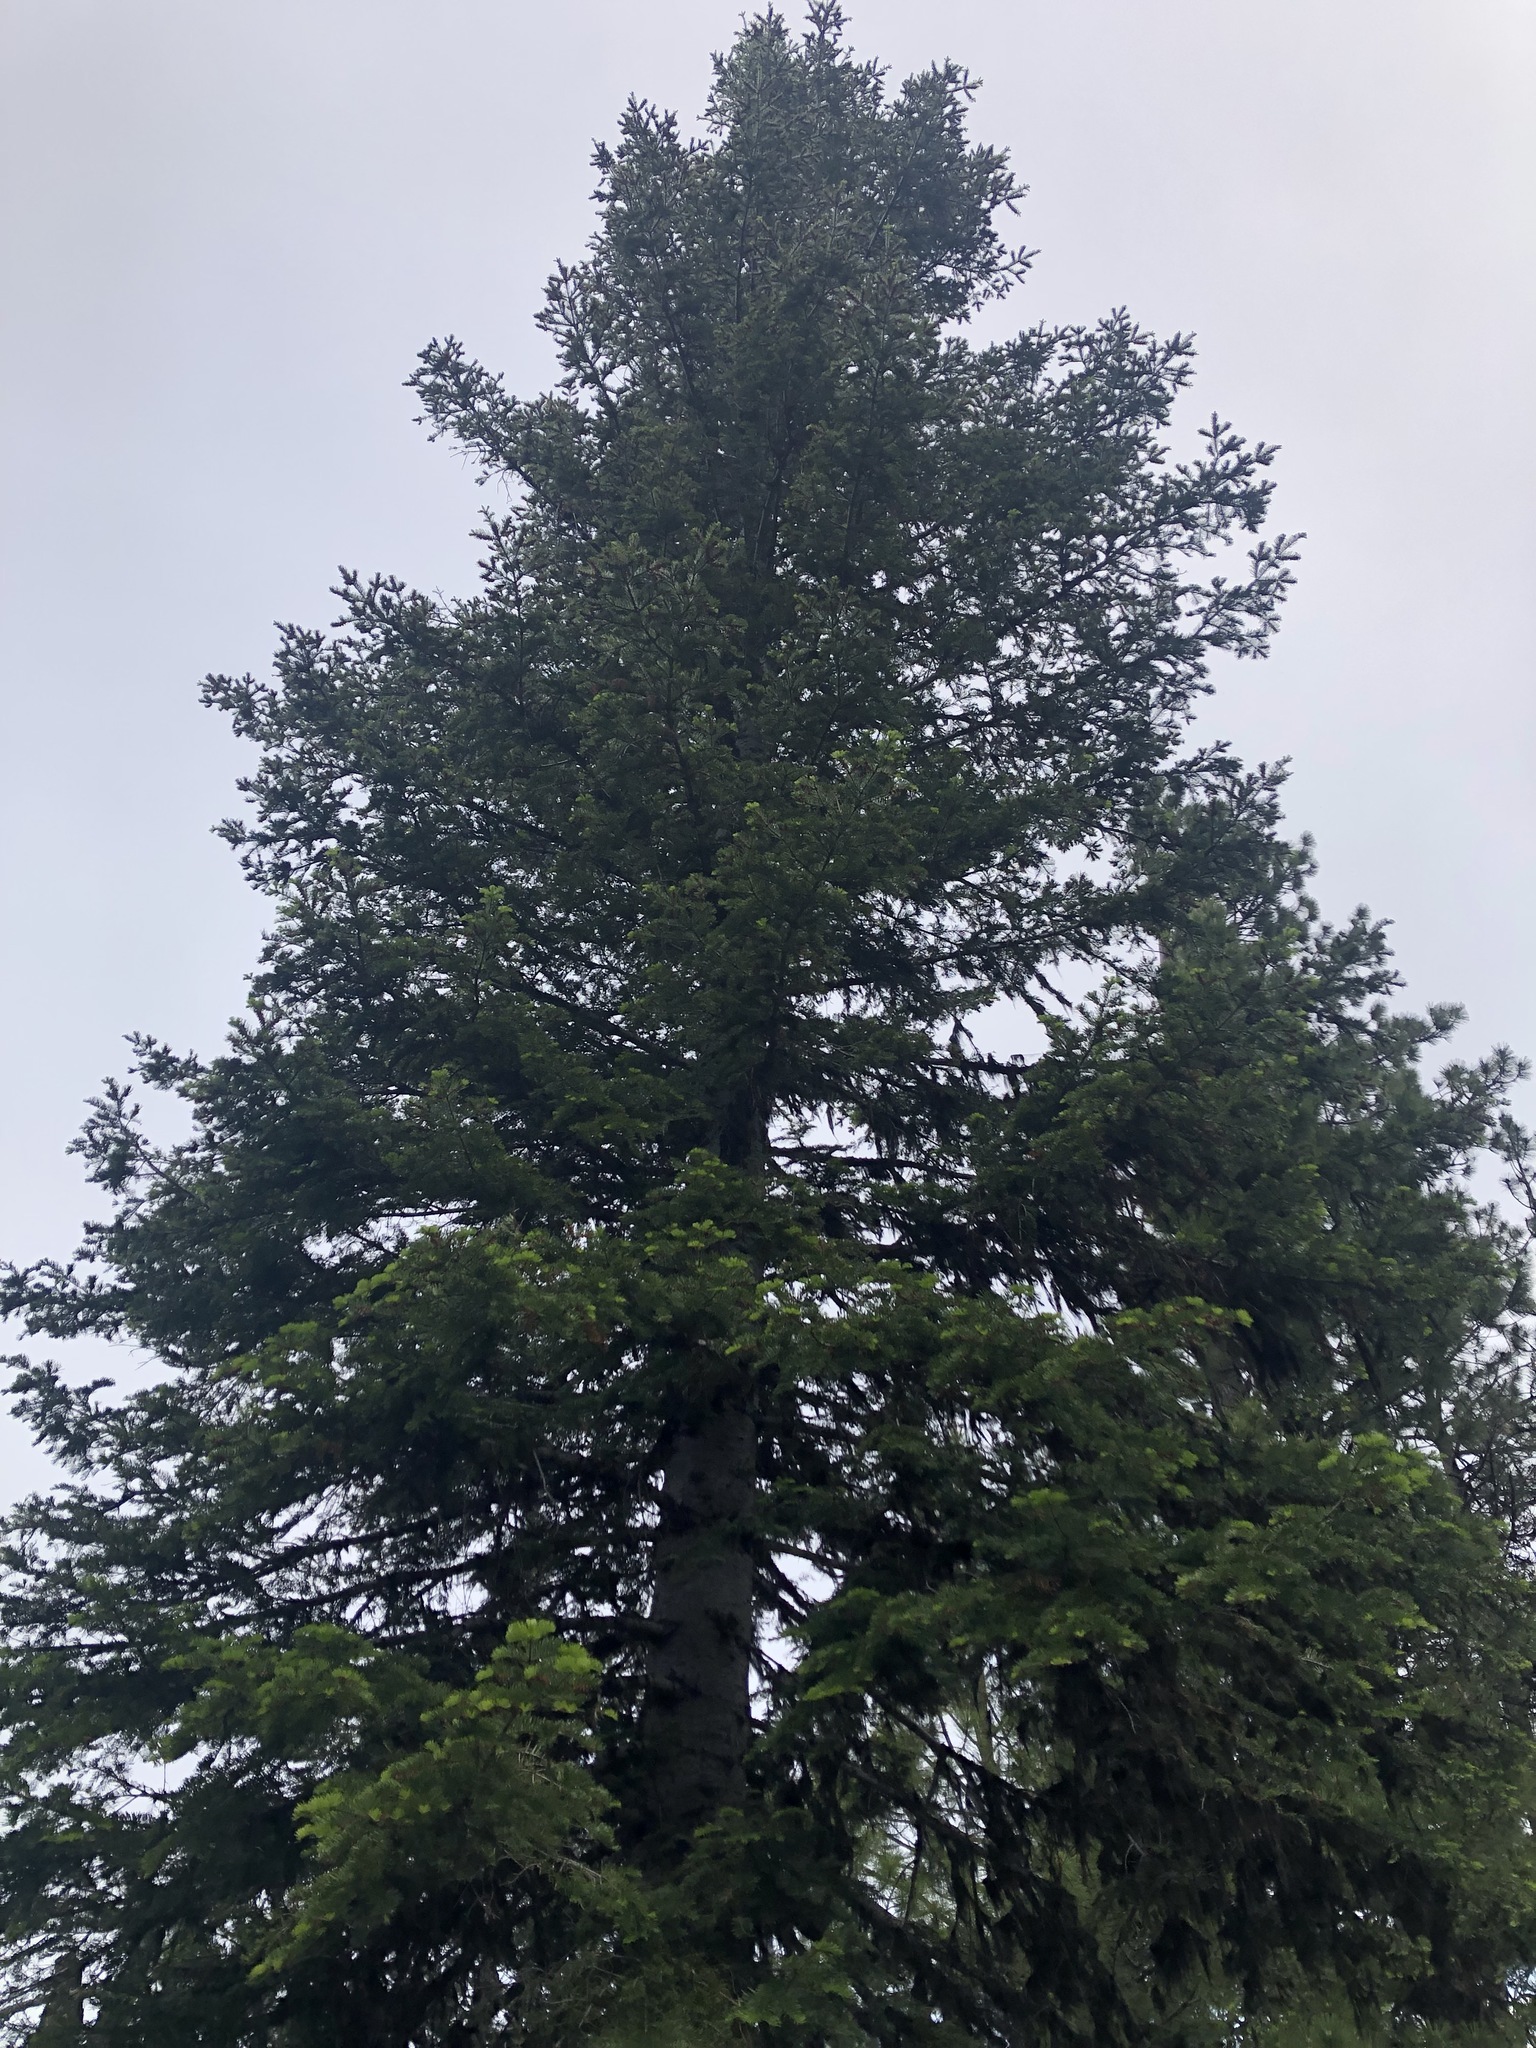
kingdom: Plantae
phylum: Tracheophyta
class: Pinopsida
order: Pinales
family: Pinaceae
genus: Abies
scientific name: Abies grandis
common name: Giant fir
